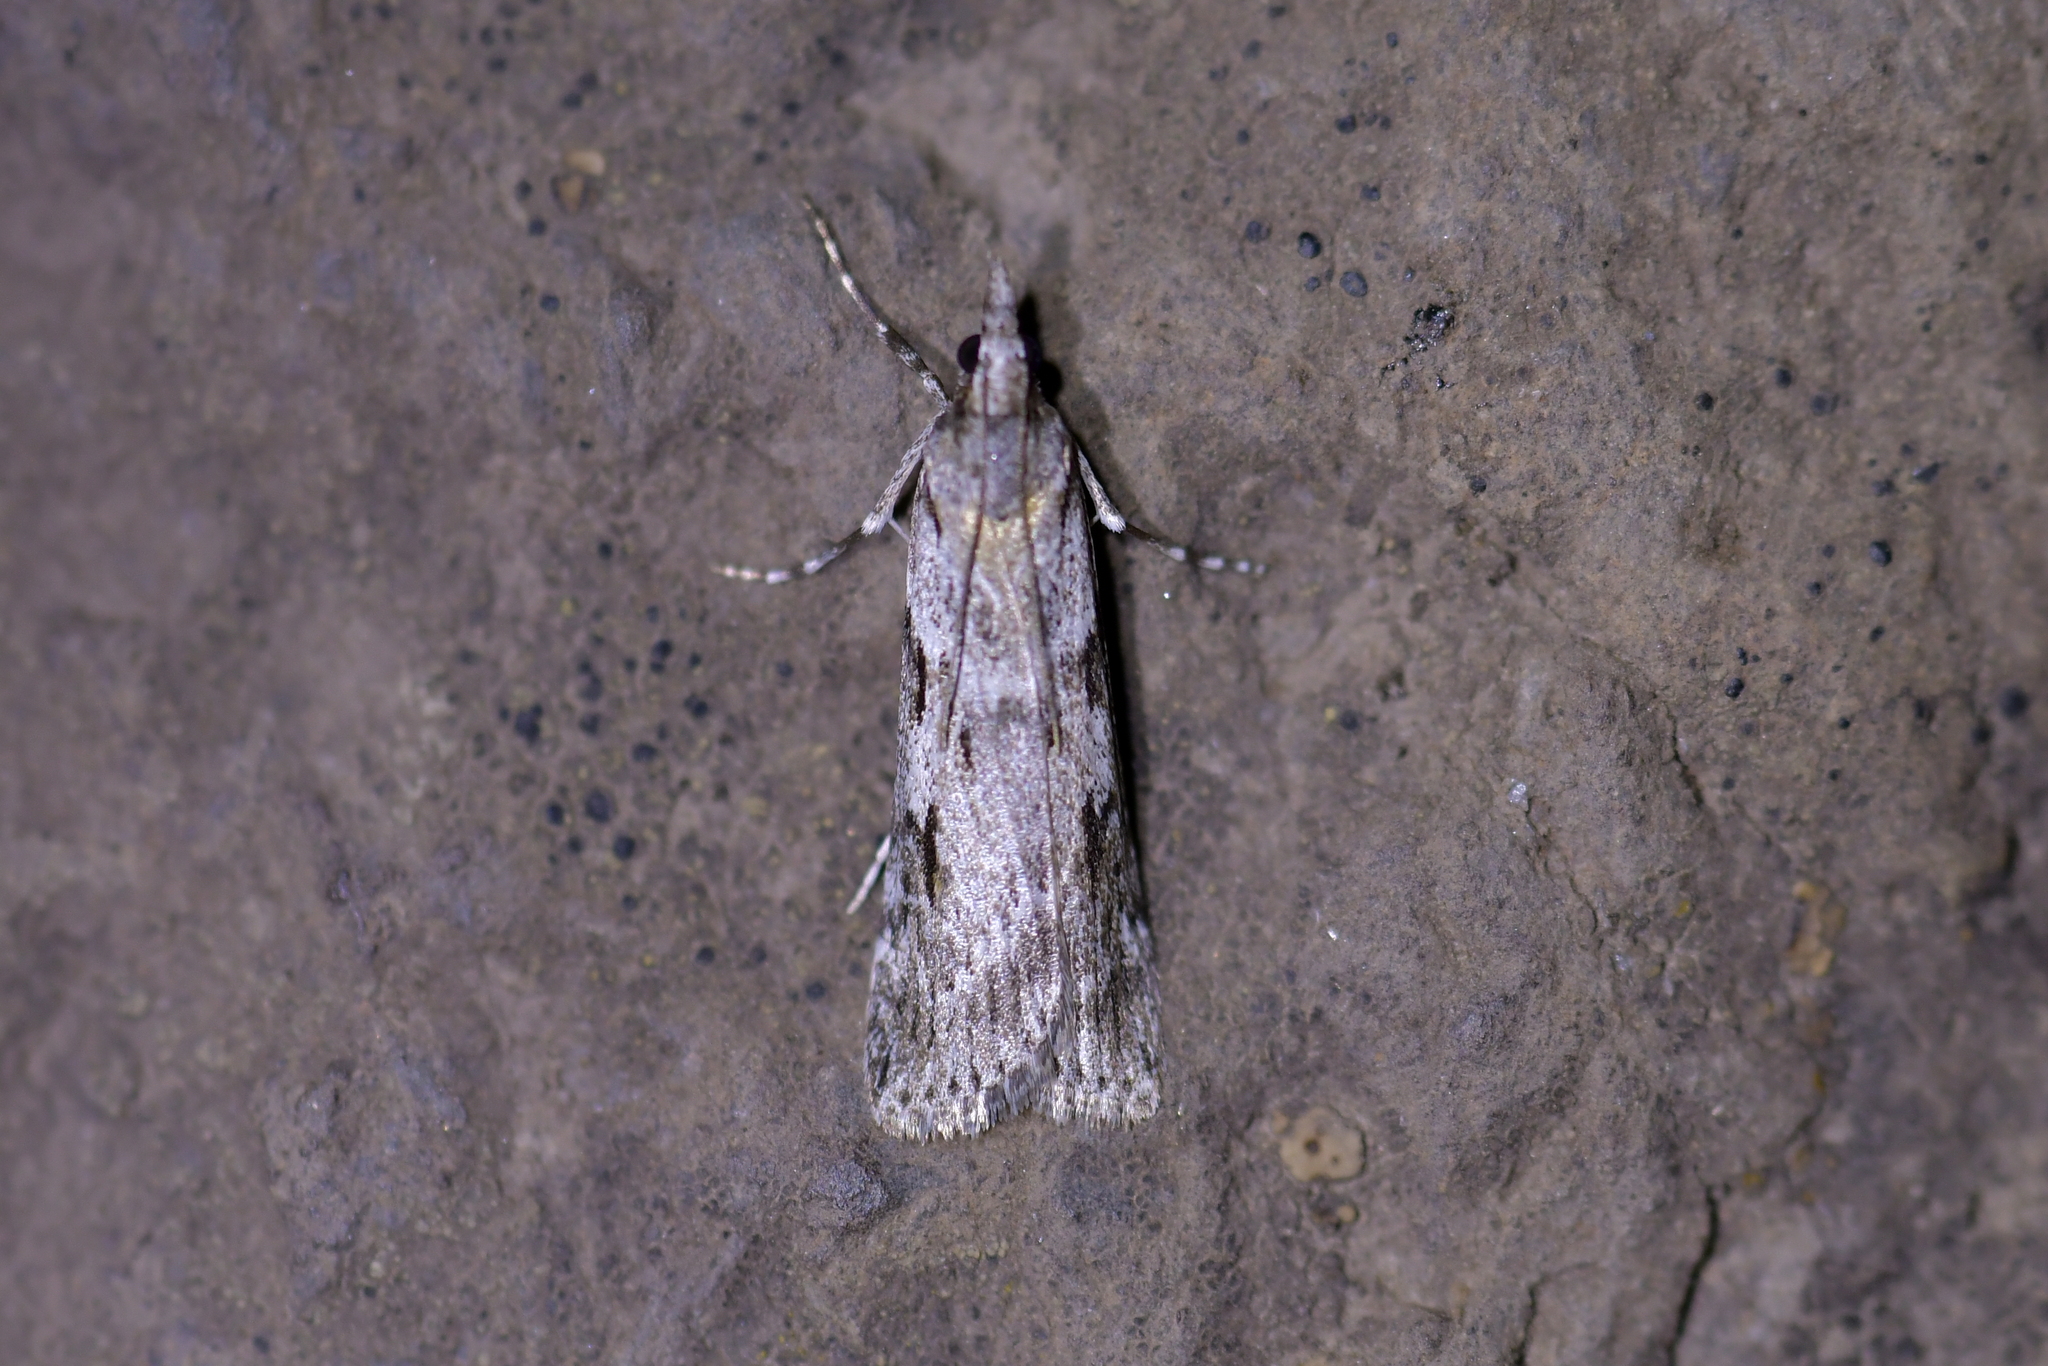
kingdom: Animalia
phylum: Arthropoda
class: Insecta
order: Lepidoptera
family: Crambidae
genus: Scoparia
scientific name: Scoparia halopis
